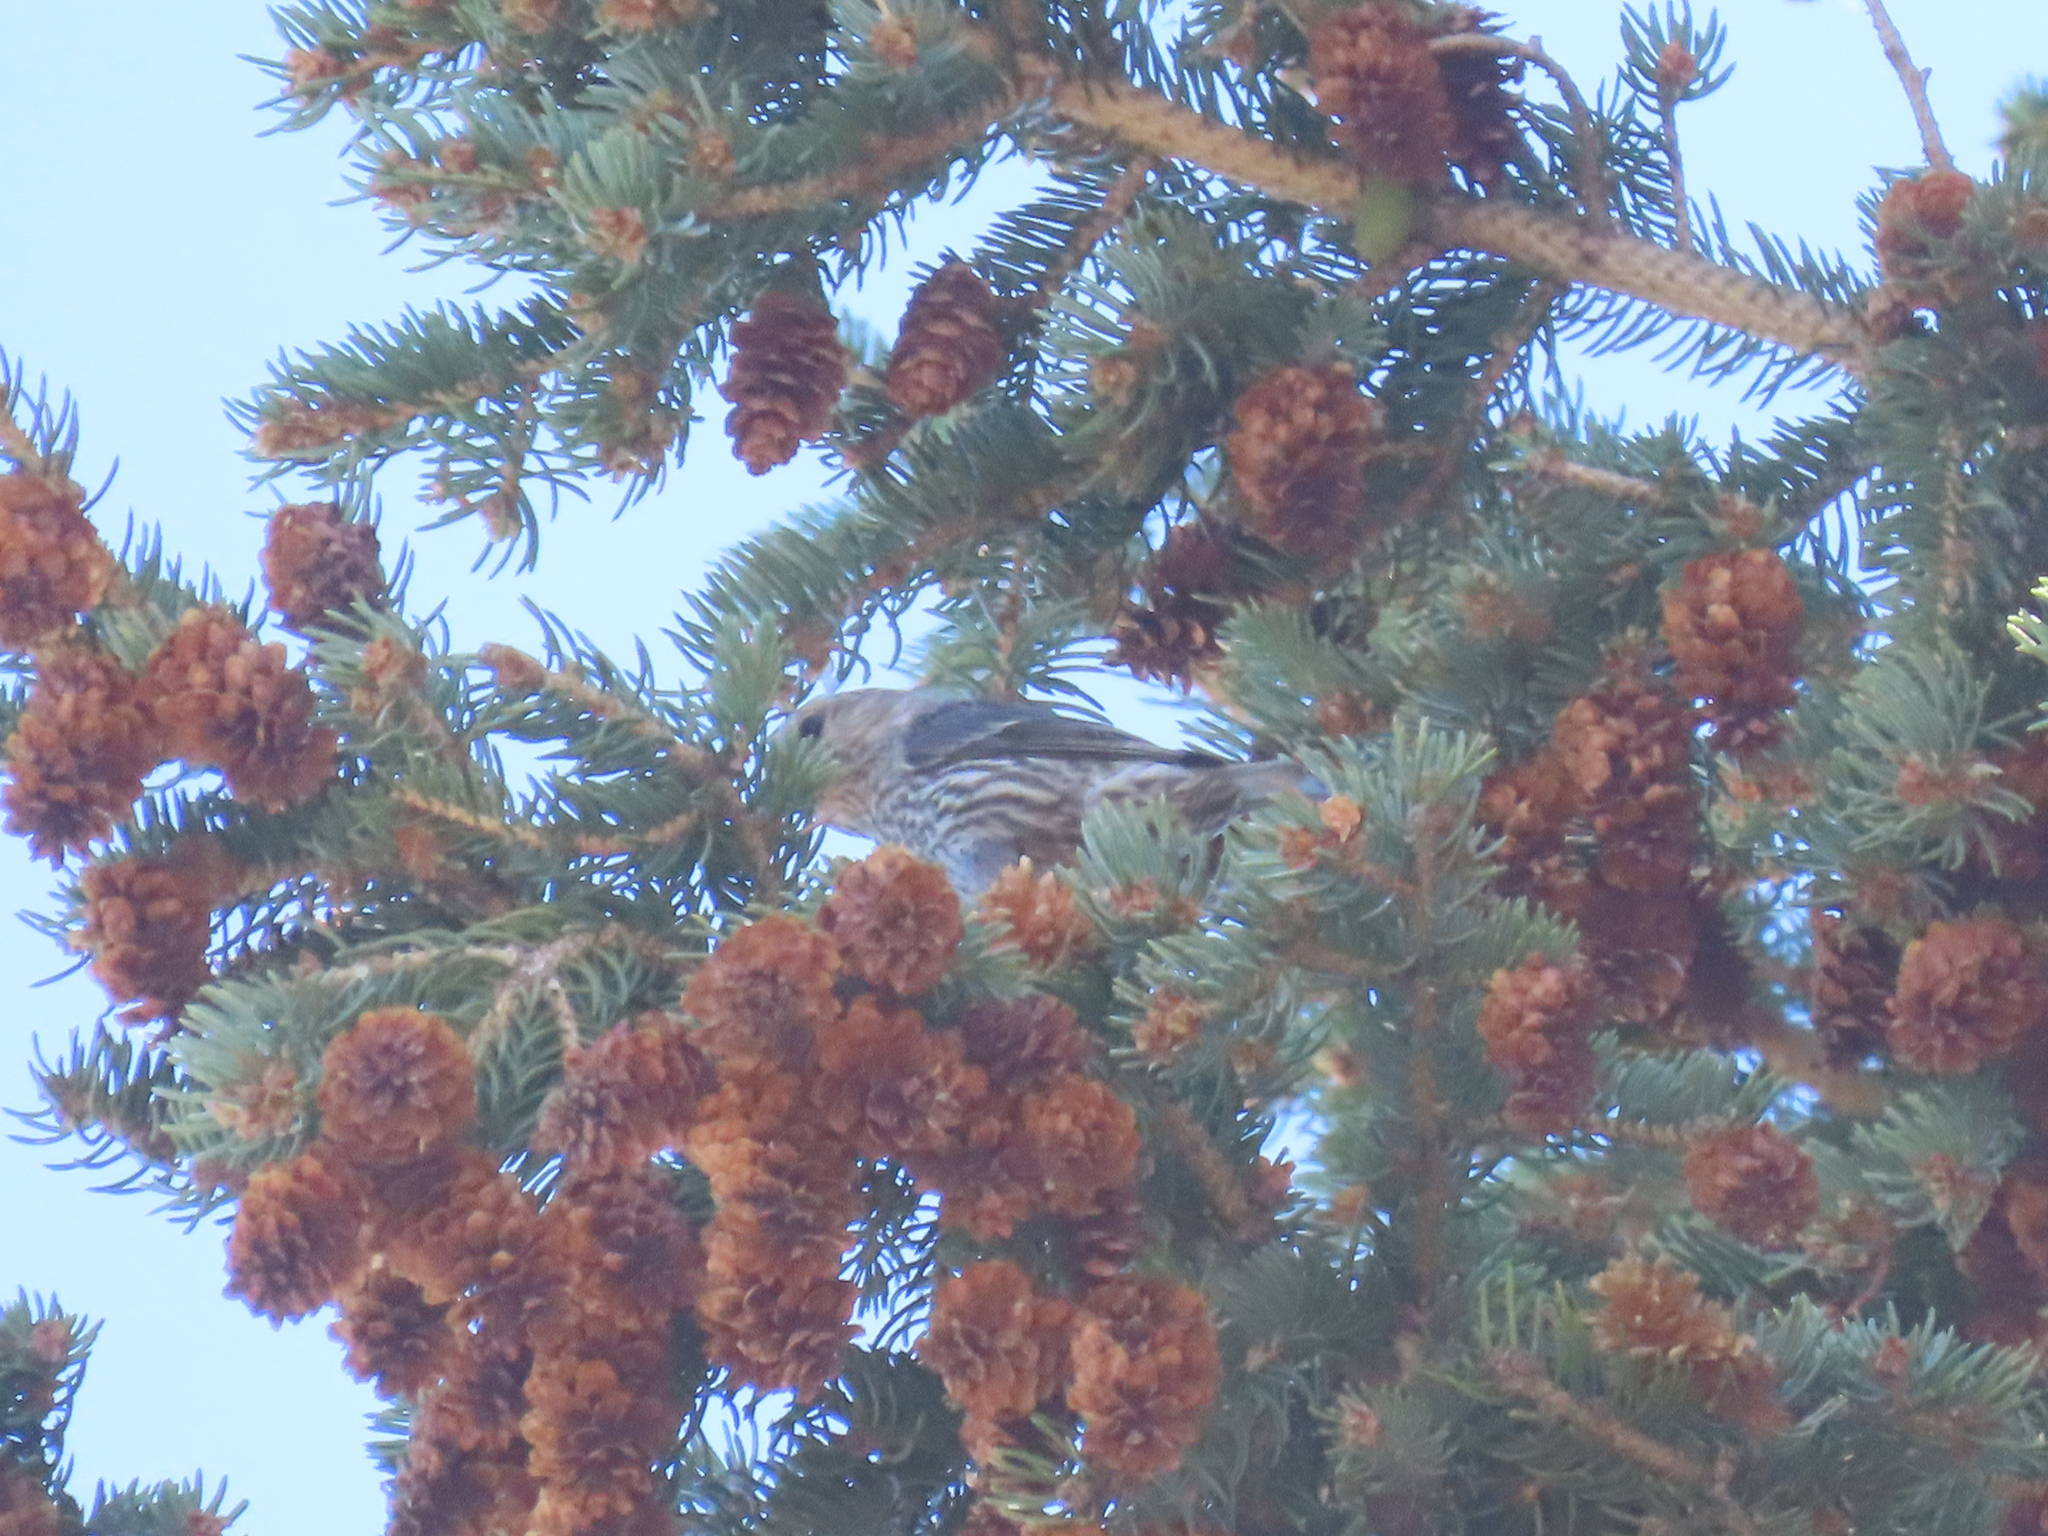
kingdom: Animalia
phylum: Chordata
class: Aves
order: Passeriformes
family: Fringillidae
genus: Loxia
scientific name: Loxia curvirostra
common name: Red crossbill
